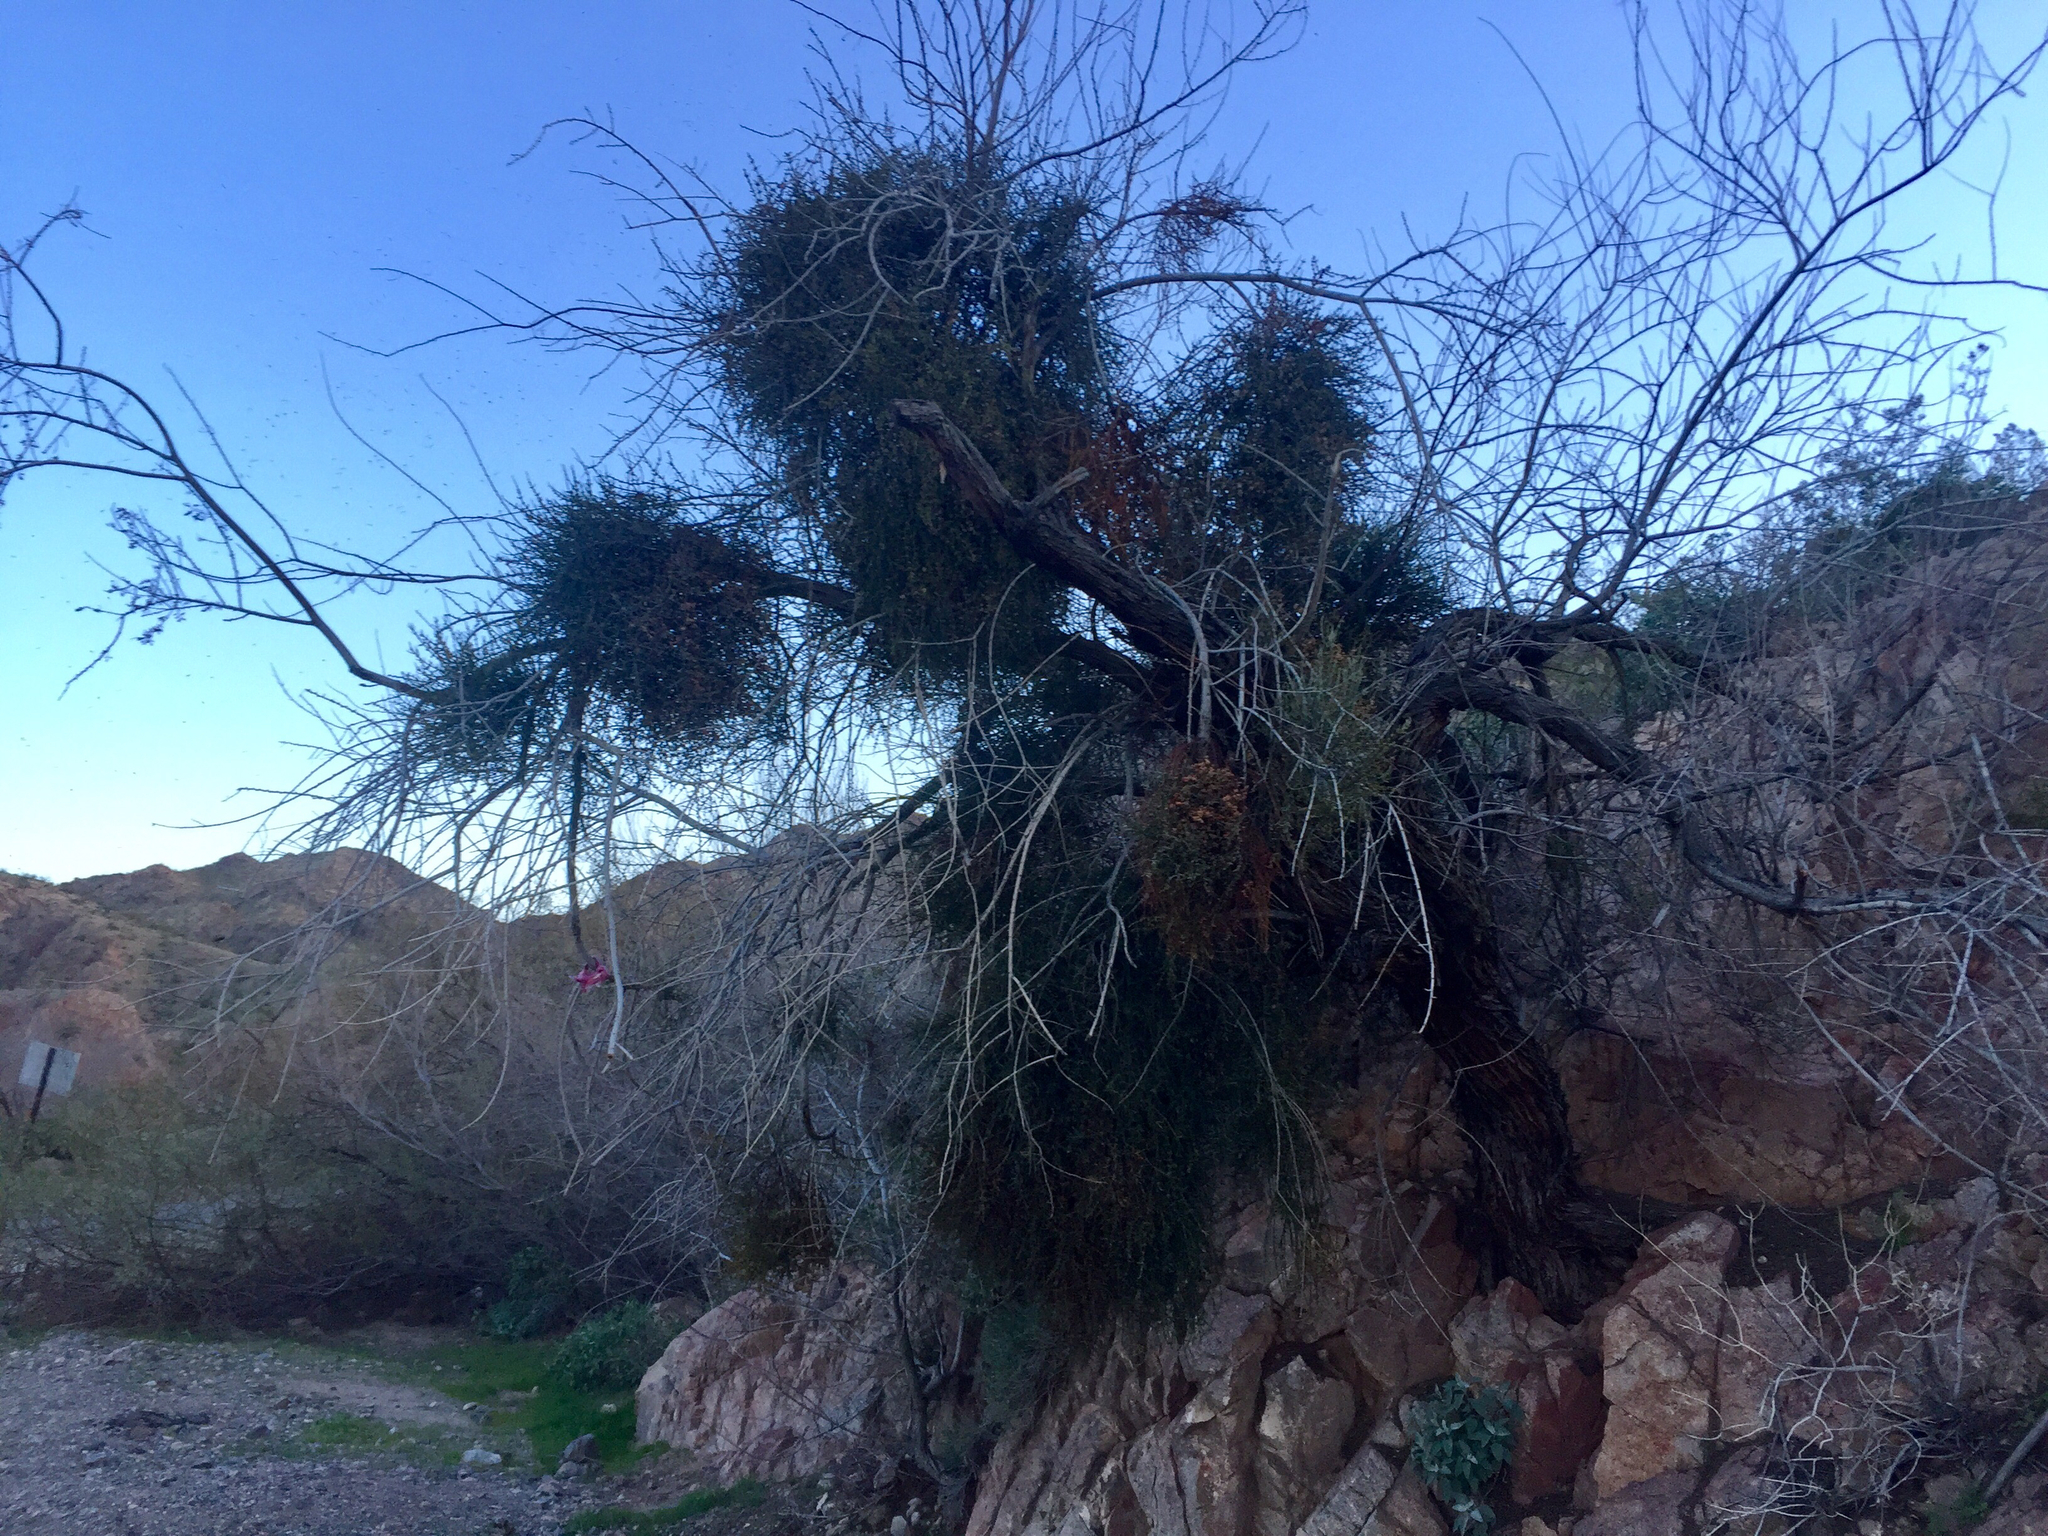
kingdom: Plantae
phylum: Tracheophyta
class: Magnoliopsida
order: Santalales
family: Viscaceae
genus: Phoradendron
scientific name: Phoradendron californicum
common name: Acacia mistletoe
